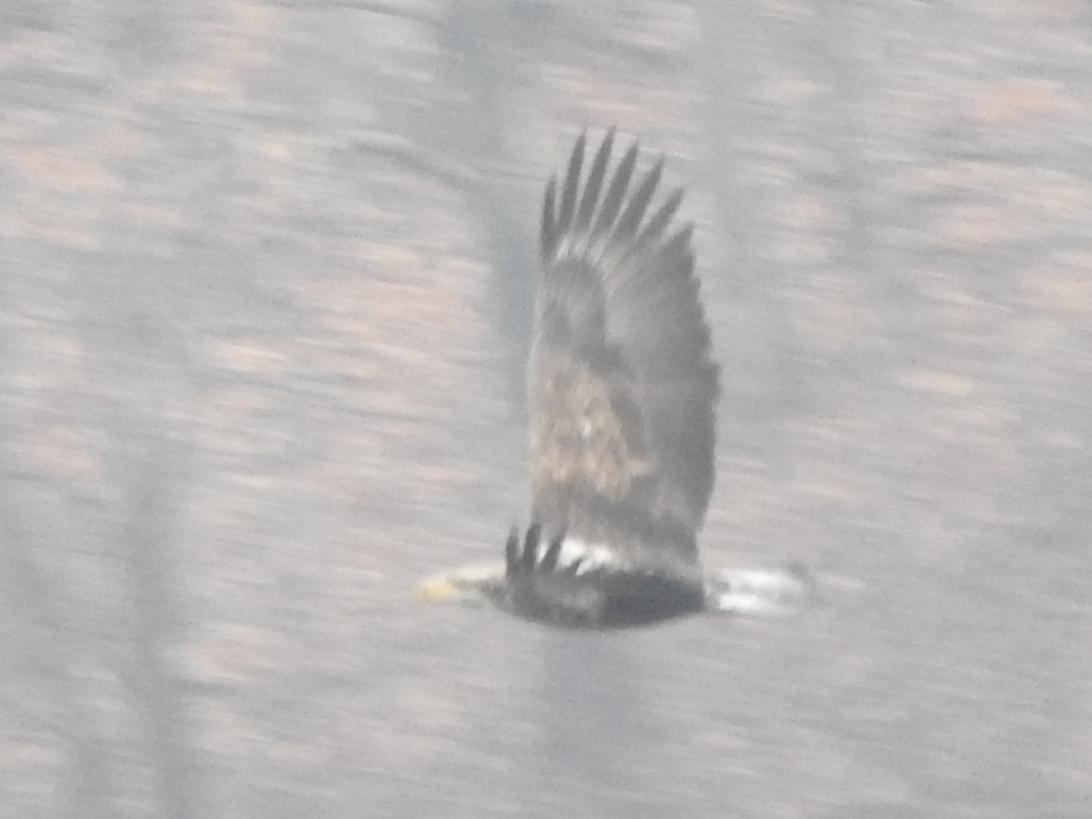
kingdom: Animalia
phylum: Chordata
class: Aves
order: Accipitriformes
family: Accipitridae
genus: Haliaeetus
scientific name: Haliaeetus leucocephalus
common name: Bald eagle
